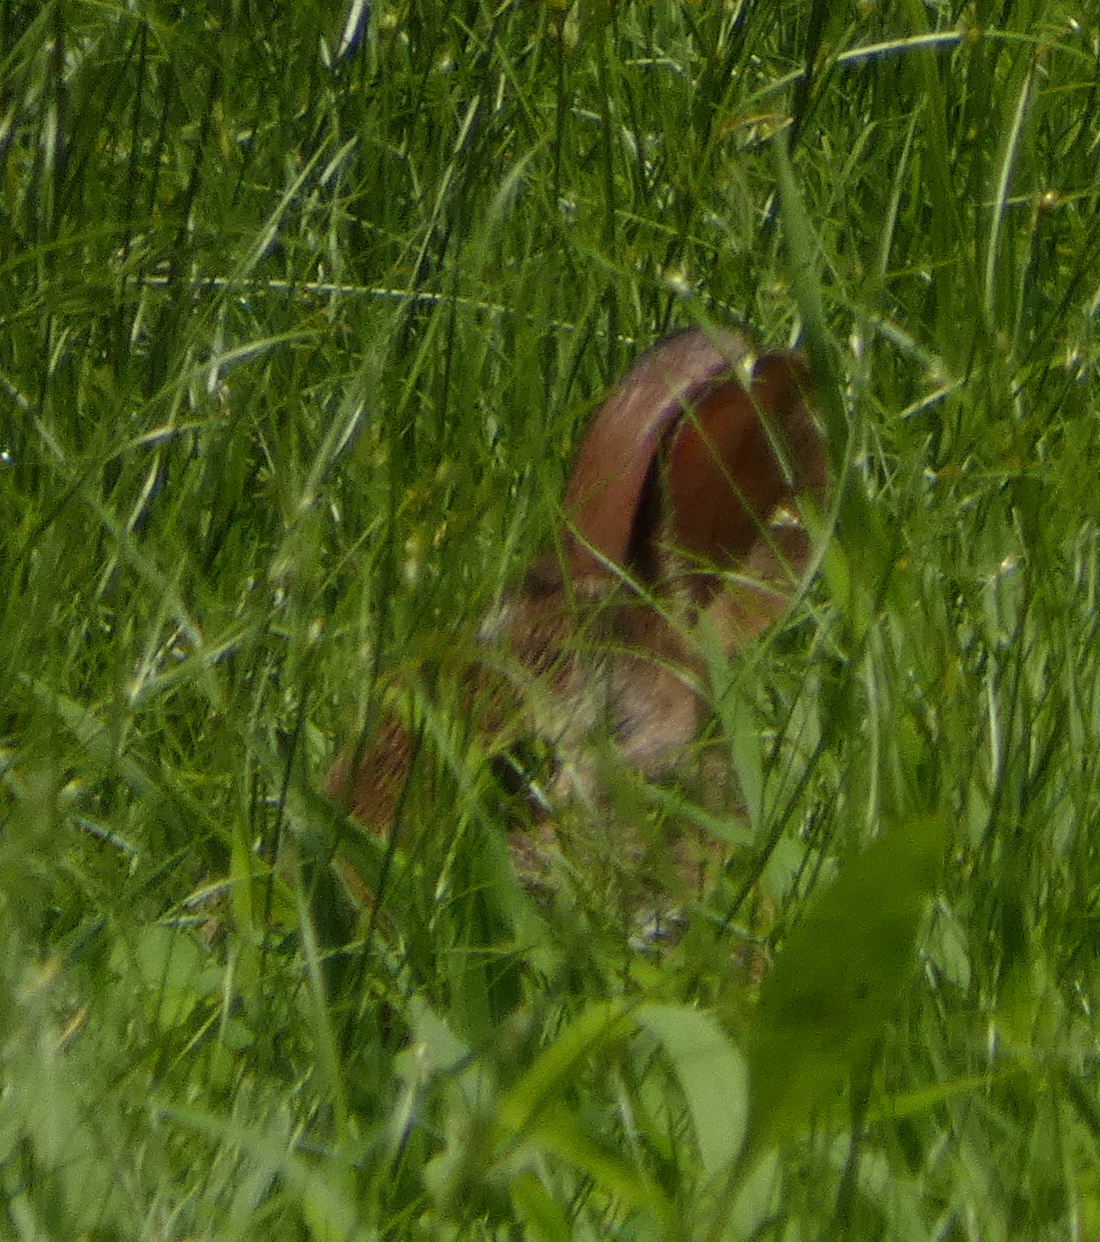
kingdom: Animalia
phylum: Chordata
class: Mammalia
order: Lagomorpha
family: Leporidae
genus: Sylvilagus
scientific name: Sylvilagus floridanus
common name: Eastern cottontail
